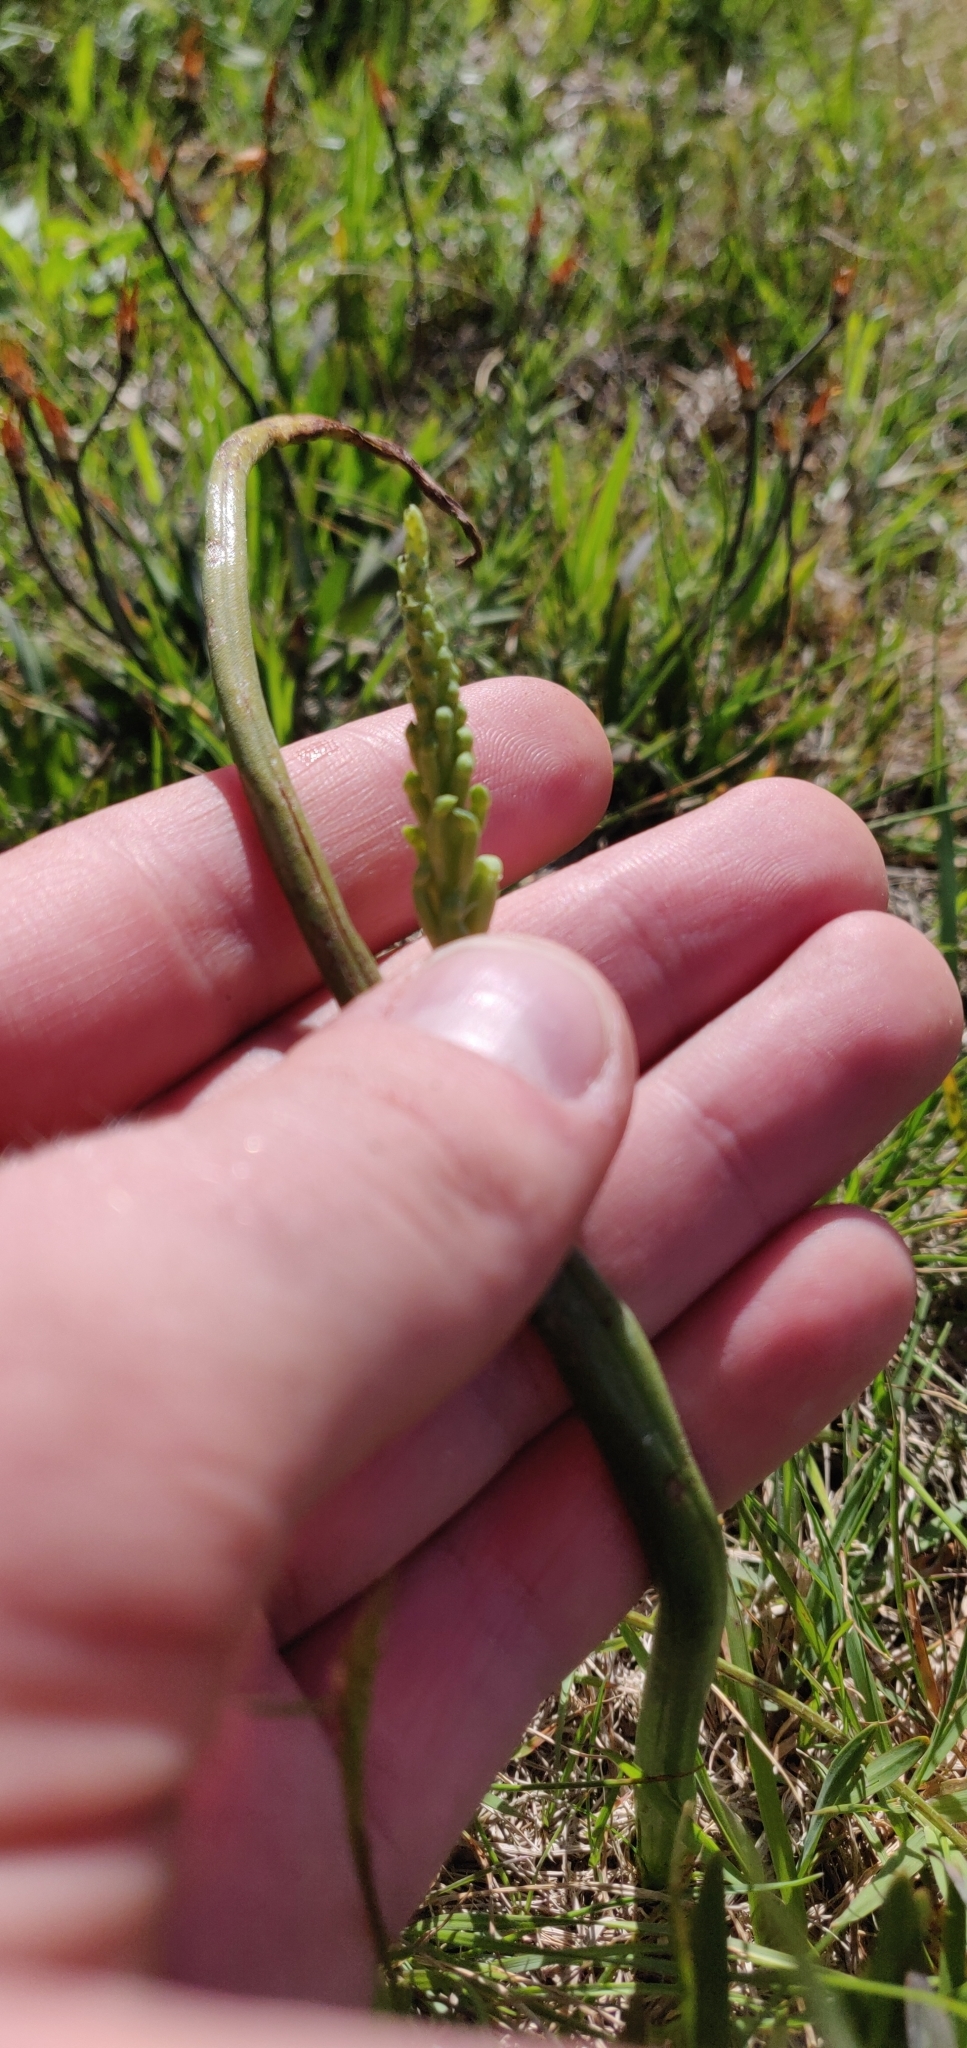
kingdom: Plantae
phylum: Tracheophyta
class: Liliopsida
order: Asparagales
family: Orchidaceae
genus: Microtis
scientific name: Microtis unifolia
